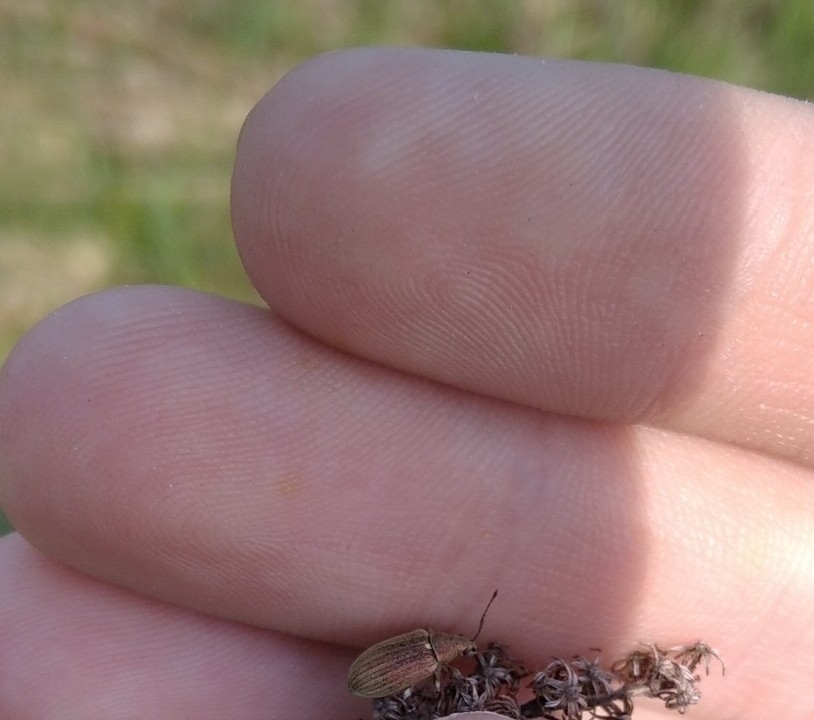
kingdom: Animalia
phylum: Arthropoda
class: Insecta
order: Coleoptera
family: Curculionidae
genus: Phyllobius
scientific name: Phyllobius pyri
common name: Common leaf weevil
